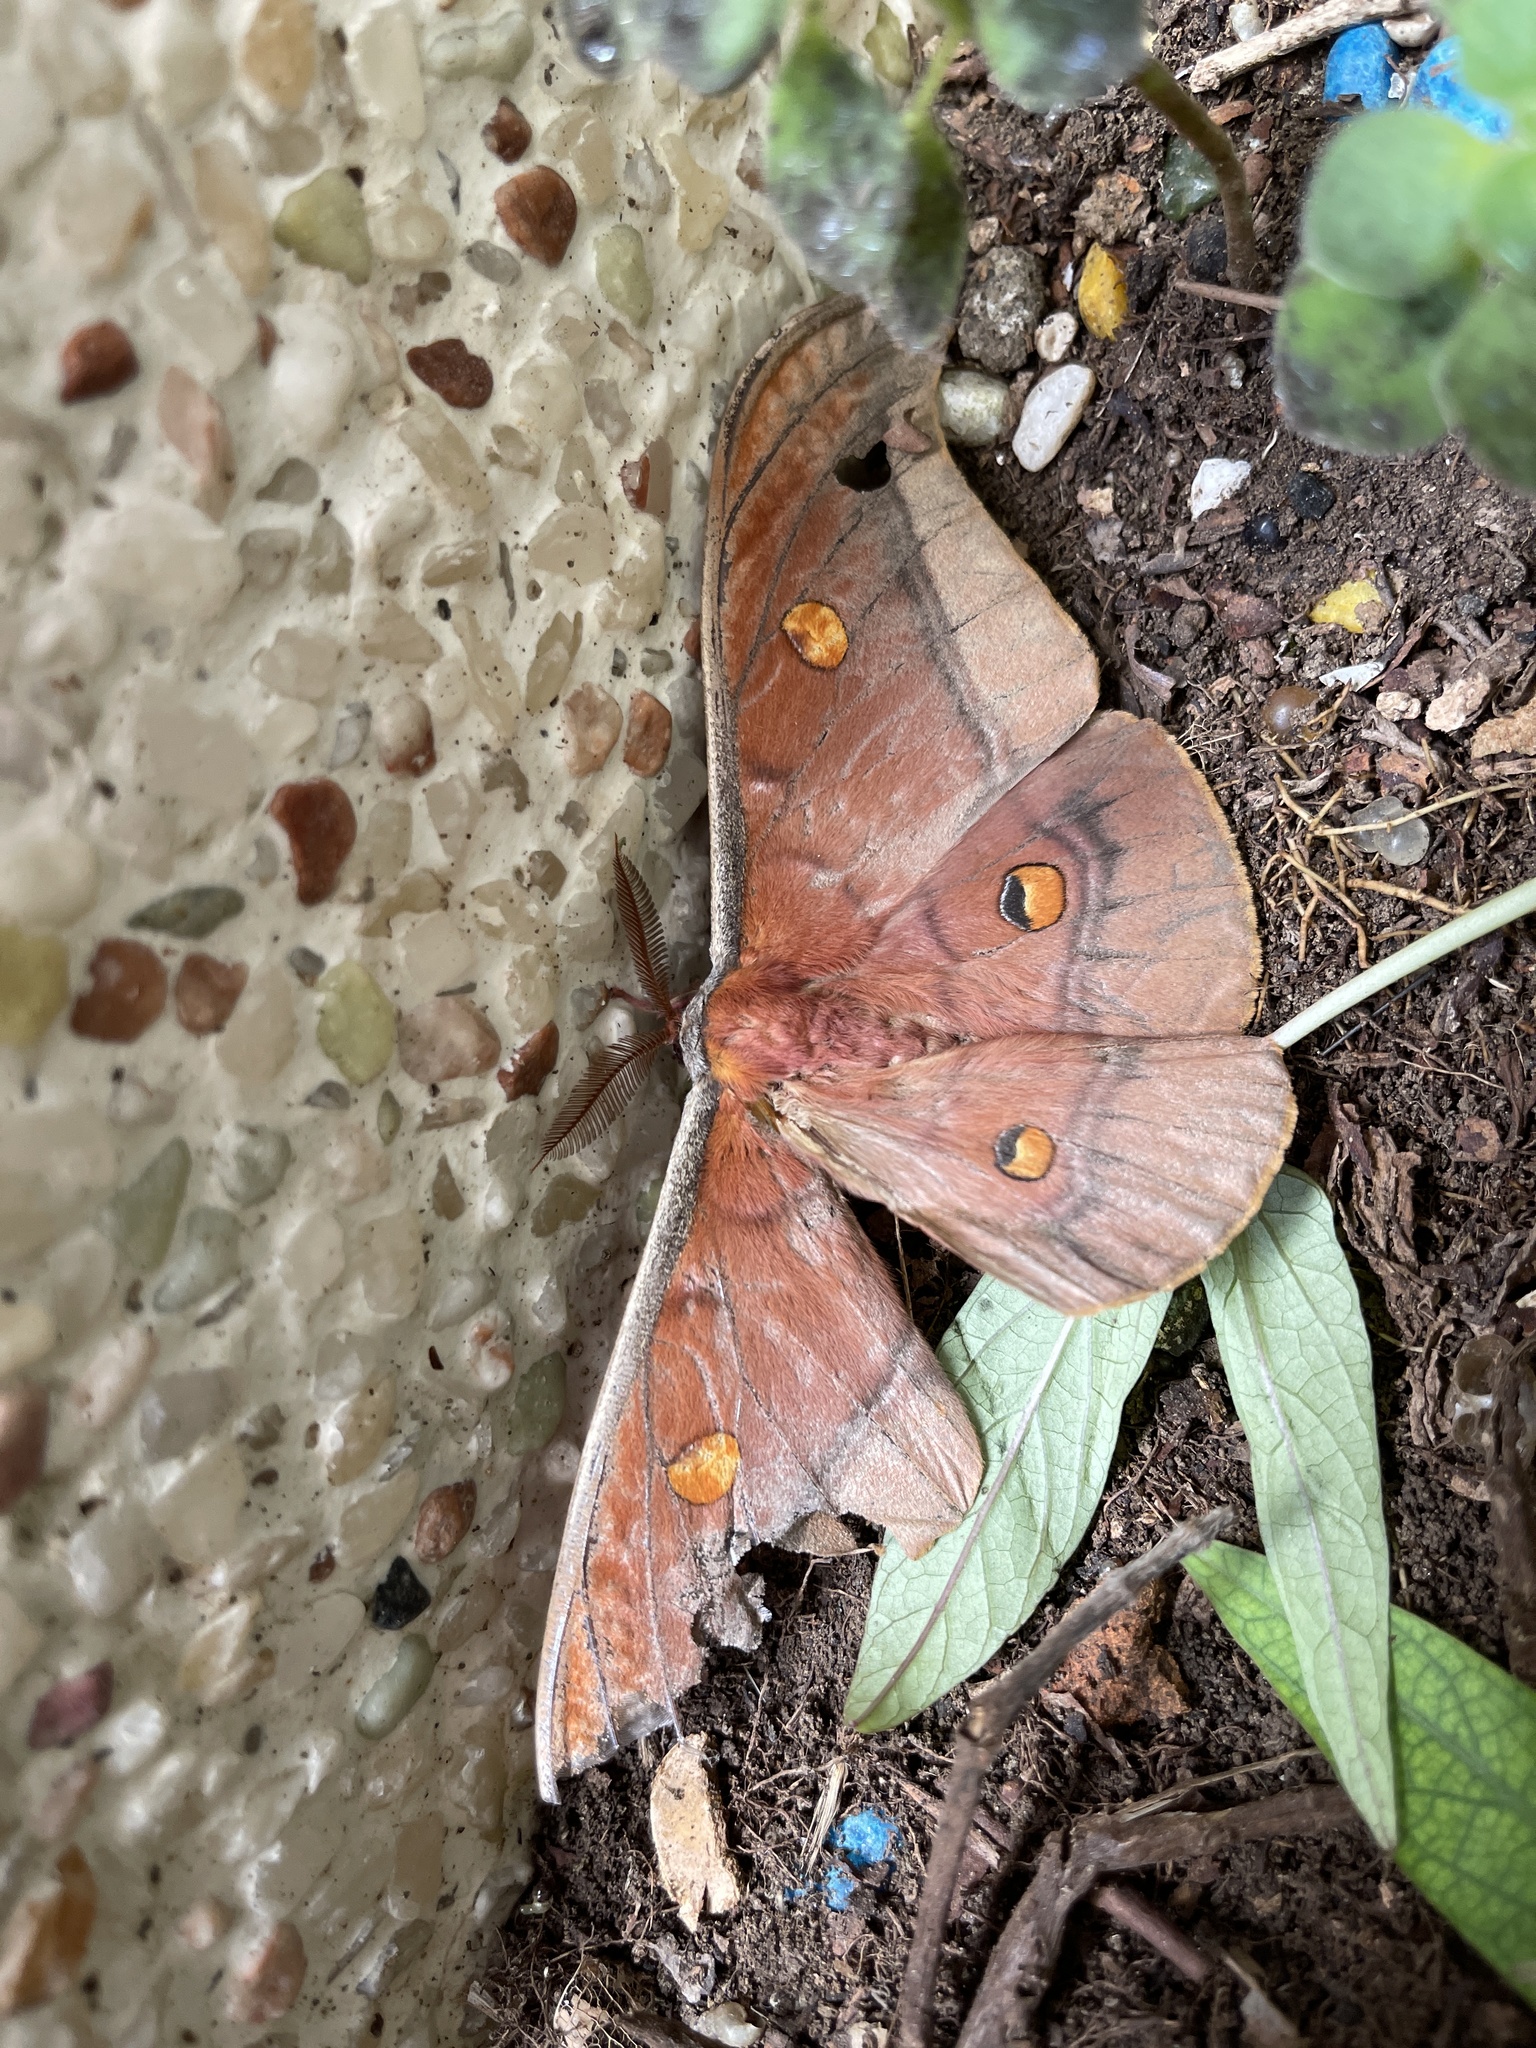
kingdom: Animalia
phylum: Arthropoda
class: Insecta
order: Lepidoptera
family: Saturniidae
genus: Antheraea
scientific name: Antheraea formosana
